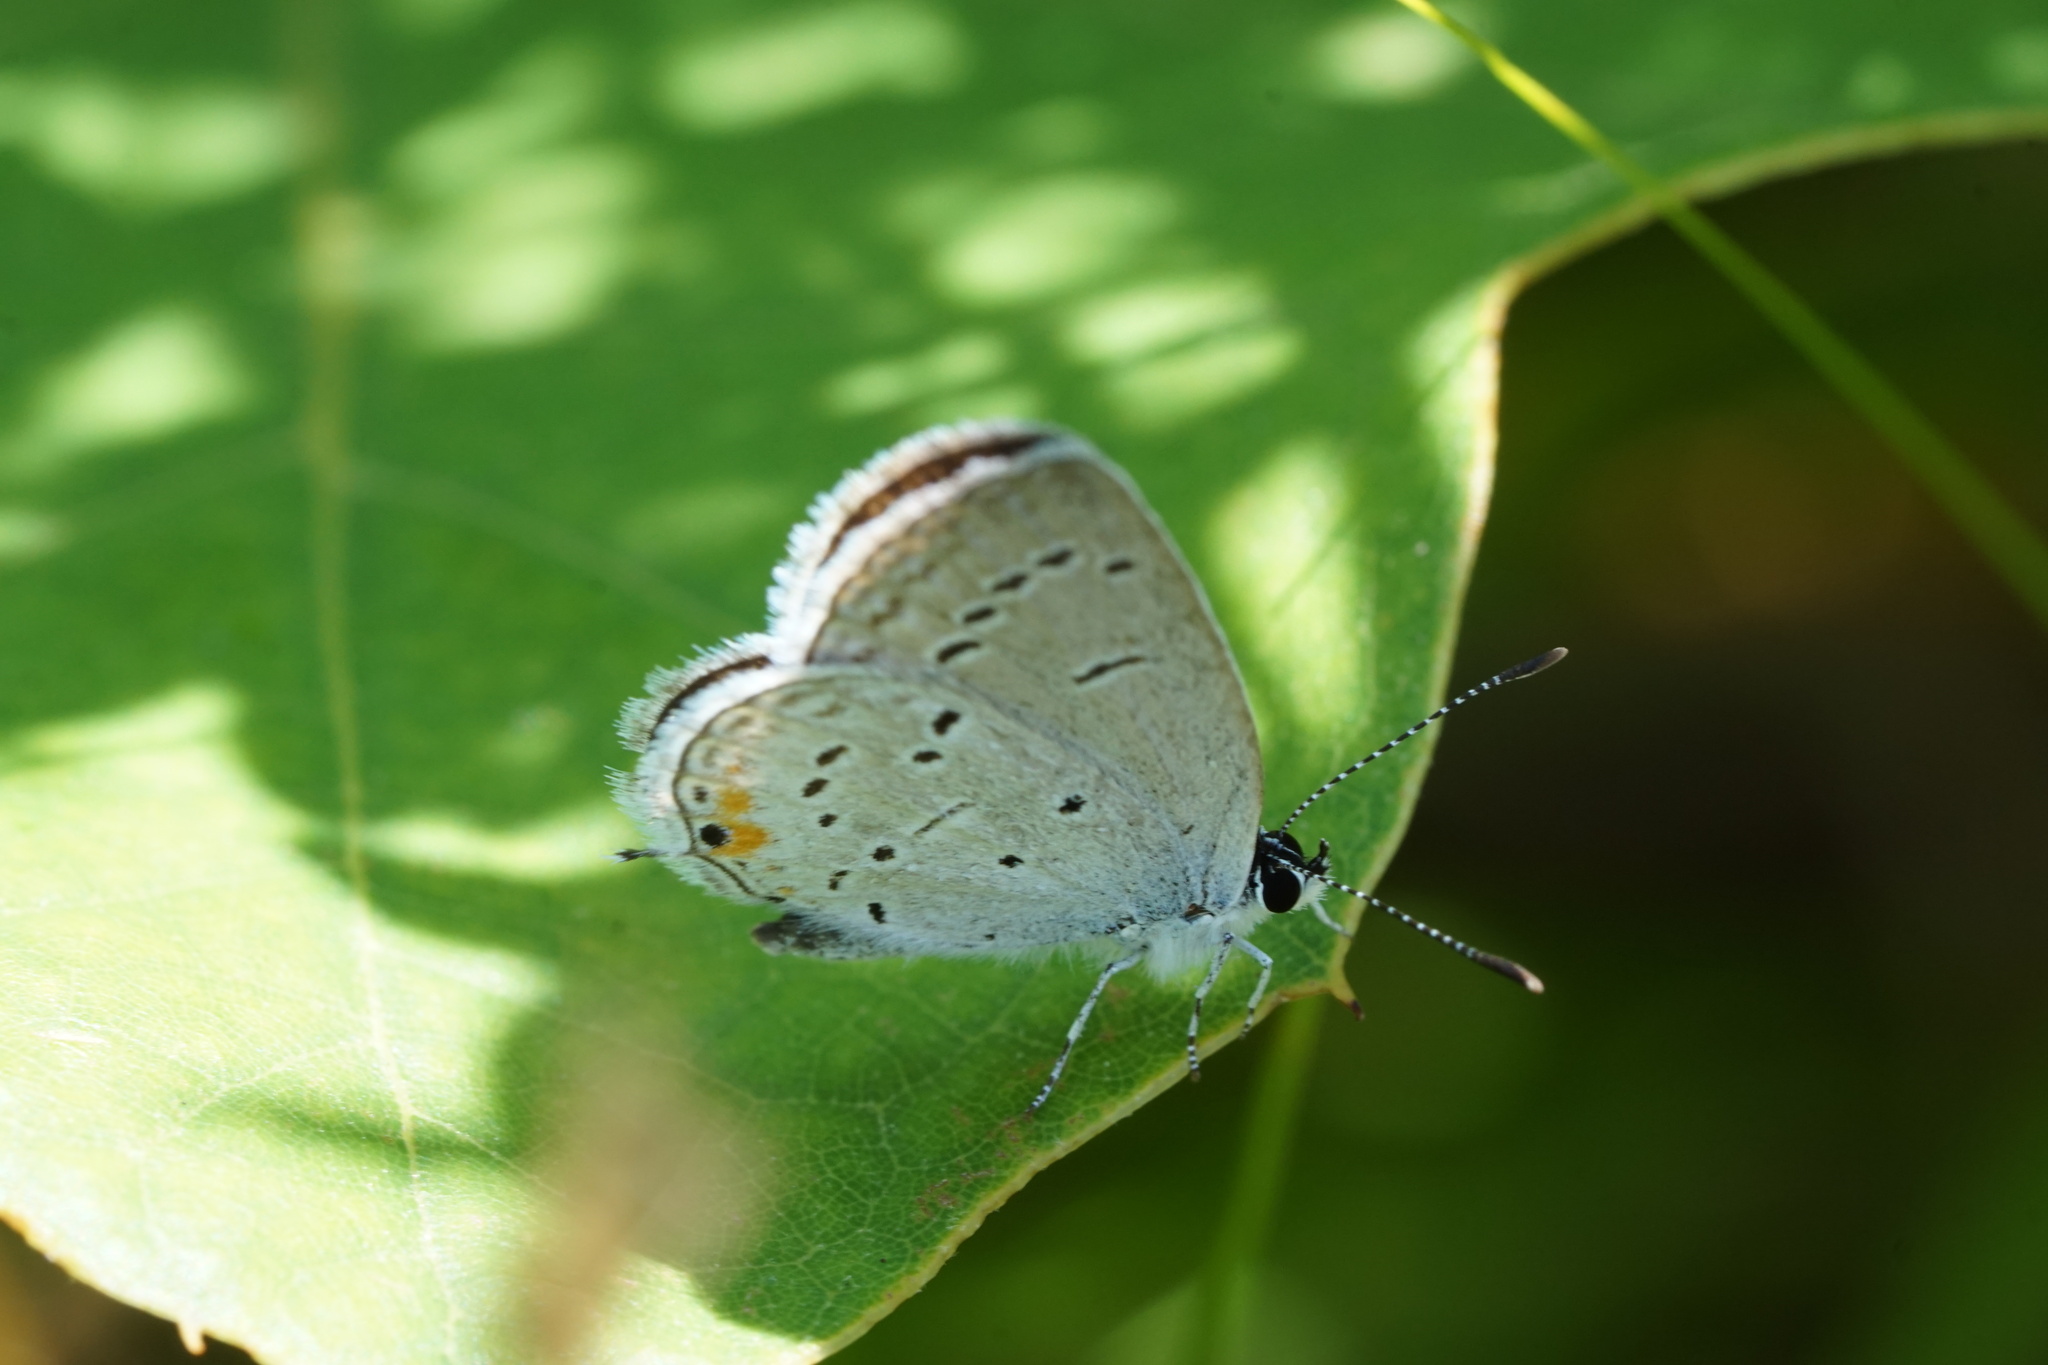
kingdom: Animalia
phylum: Arthropoda
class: Insecta
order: Lepidoptera
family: Lycaenidae
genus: Elkalyce
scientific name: Elkalyce comyntas
